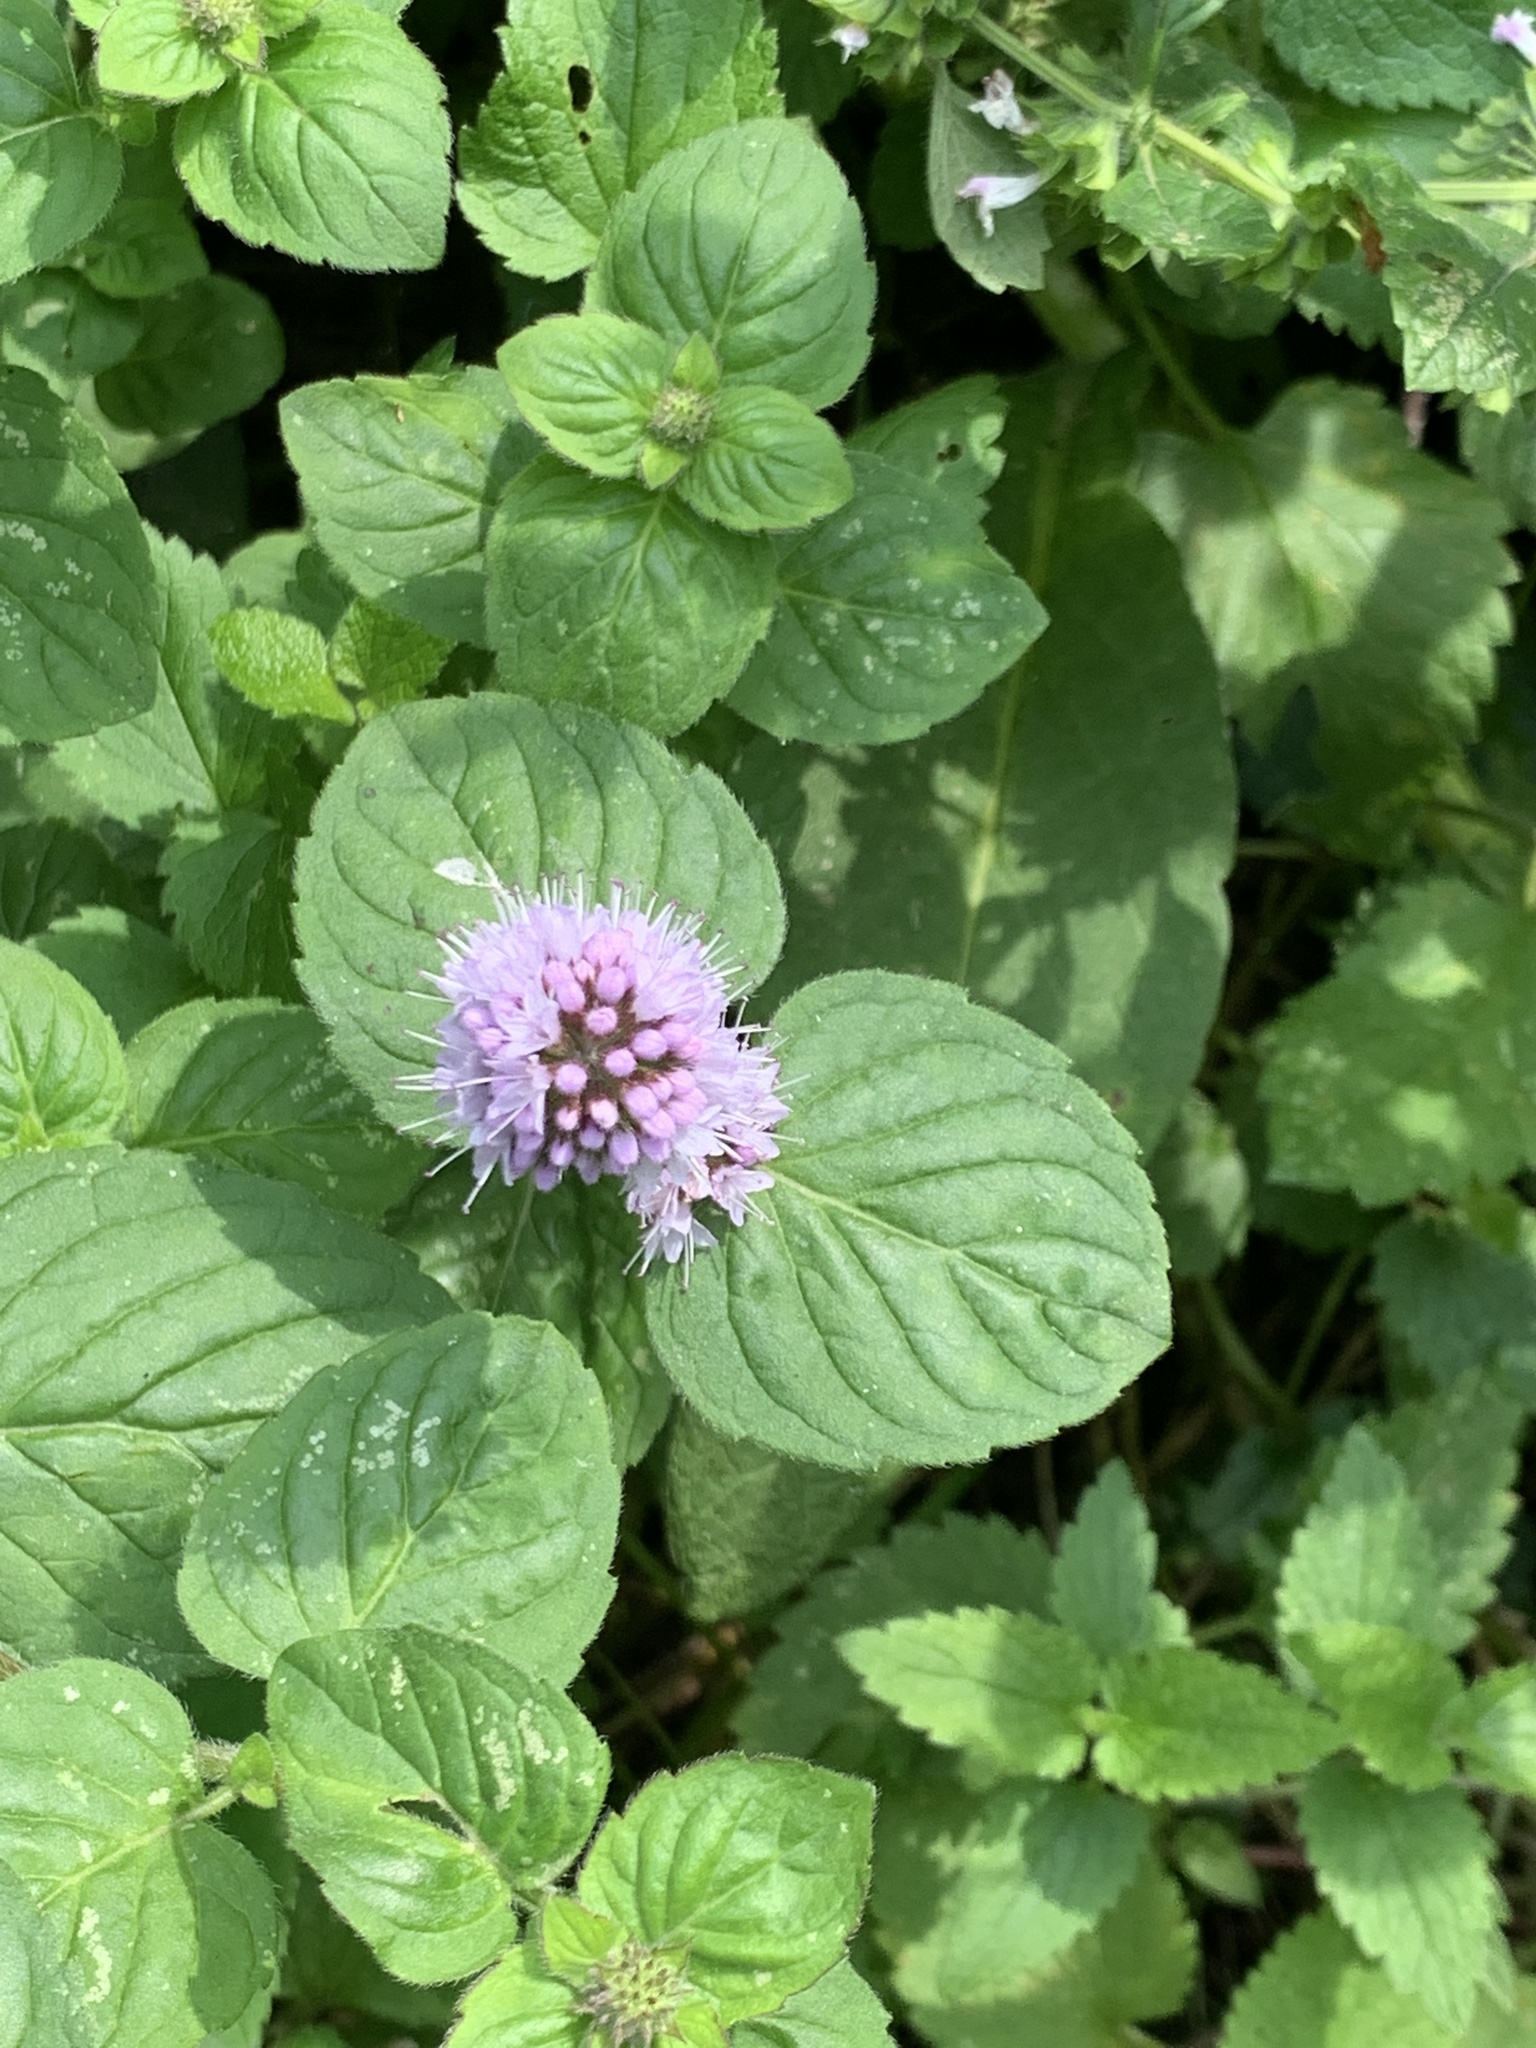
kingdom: Plantae
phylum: Tracheophyta
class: Magnoliopsida
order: Lamiales
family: Lamiaceae
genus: Mentha
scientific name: Mentha aquatica
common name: Water mint
